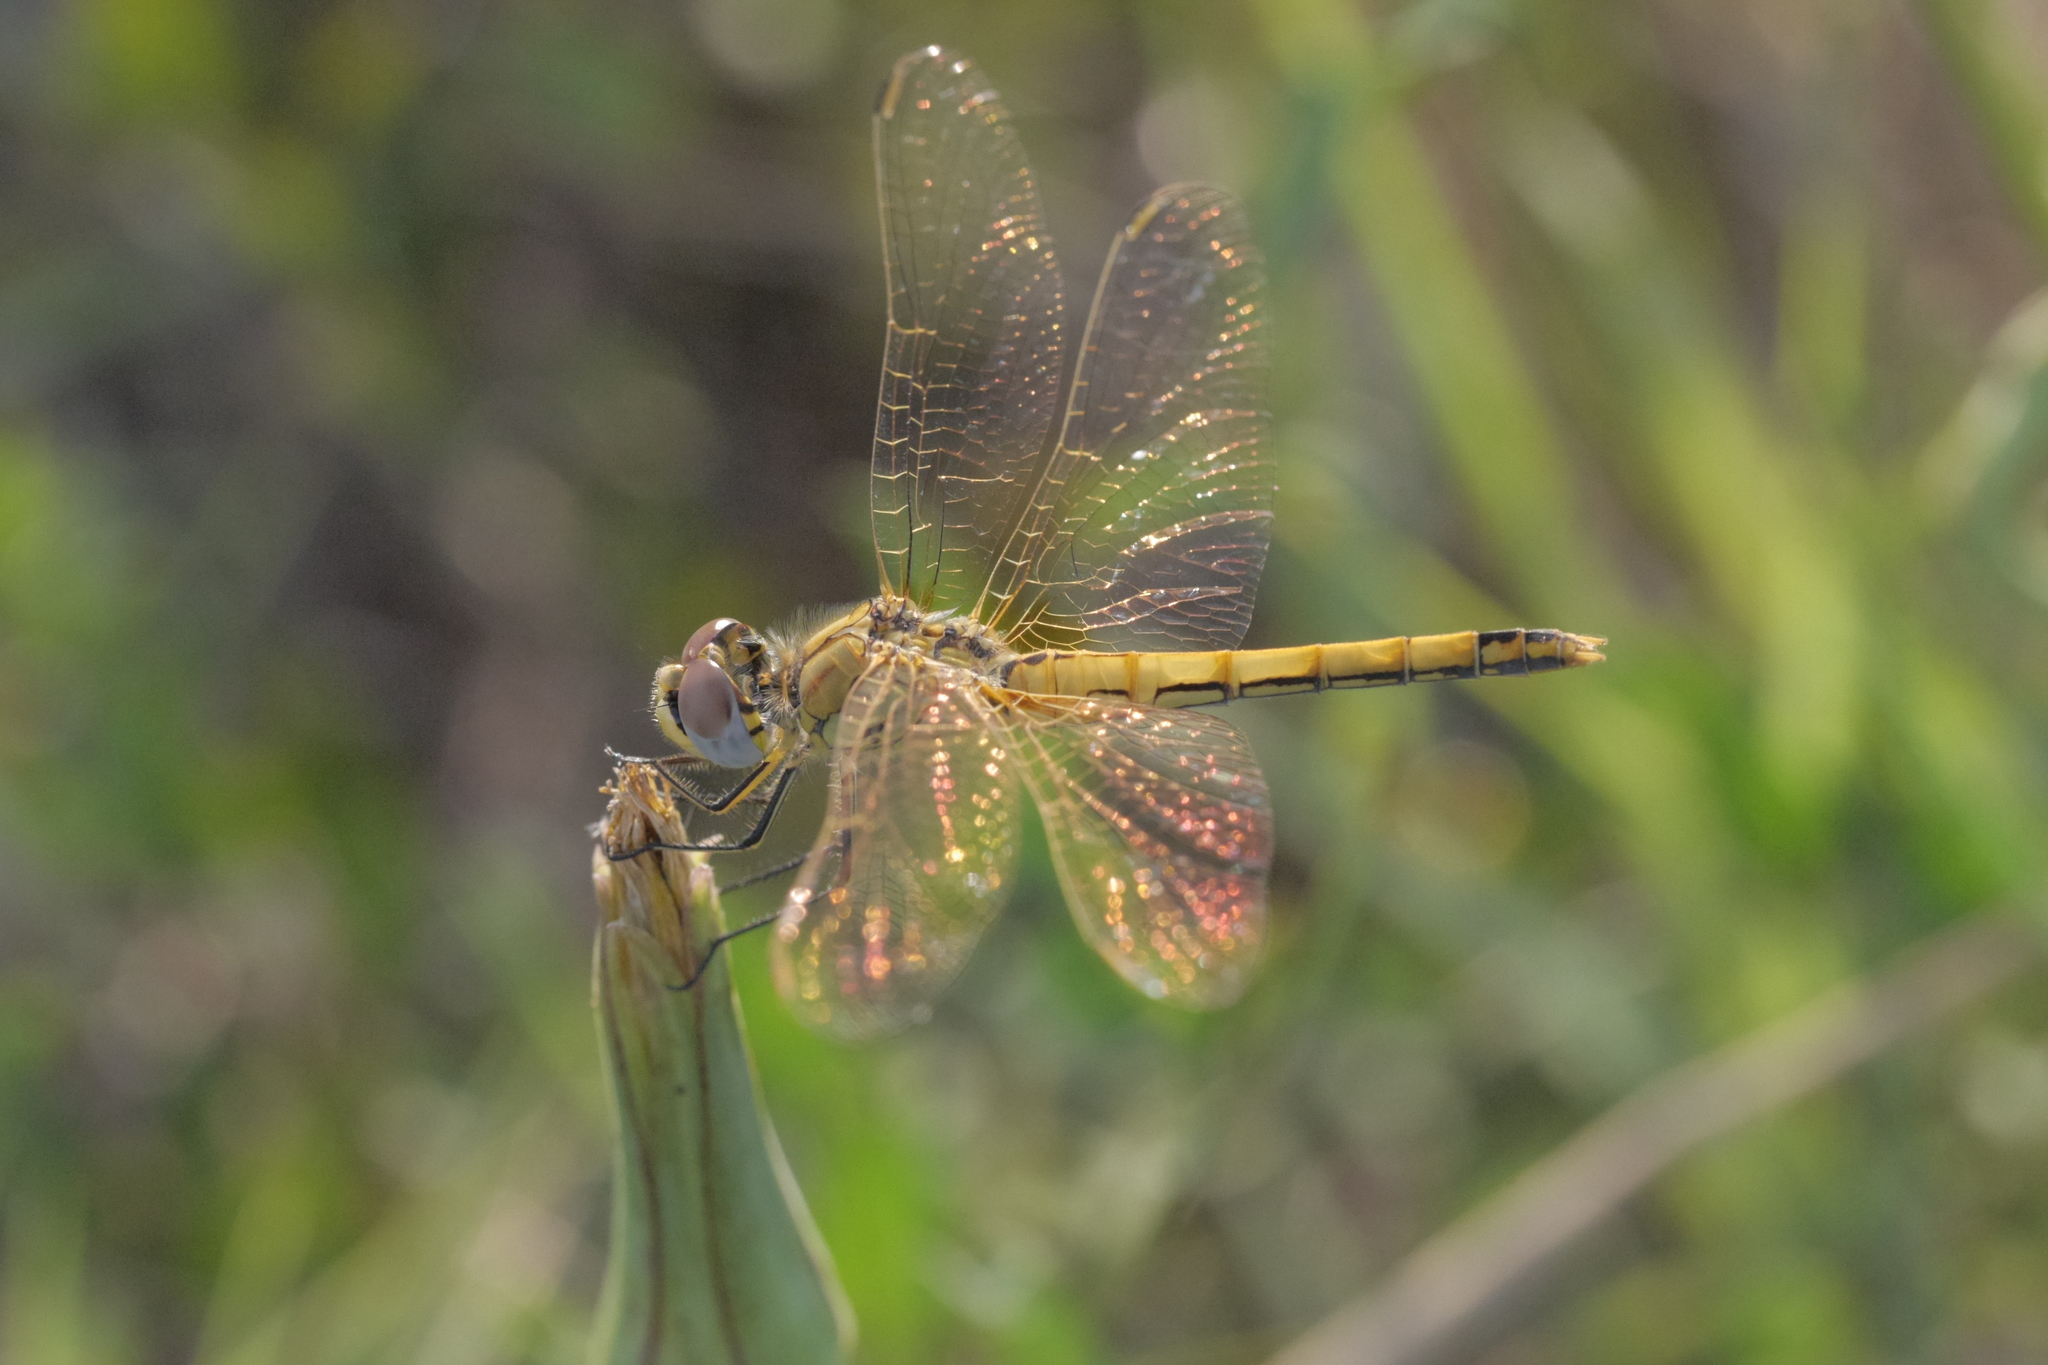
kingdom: Animalia
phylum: Arthropoda
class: Insecta
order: Odonata
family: Libellulidae
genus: Sympetrum
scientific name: Sympetrum fonscolombii
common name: Red-veined darter
